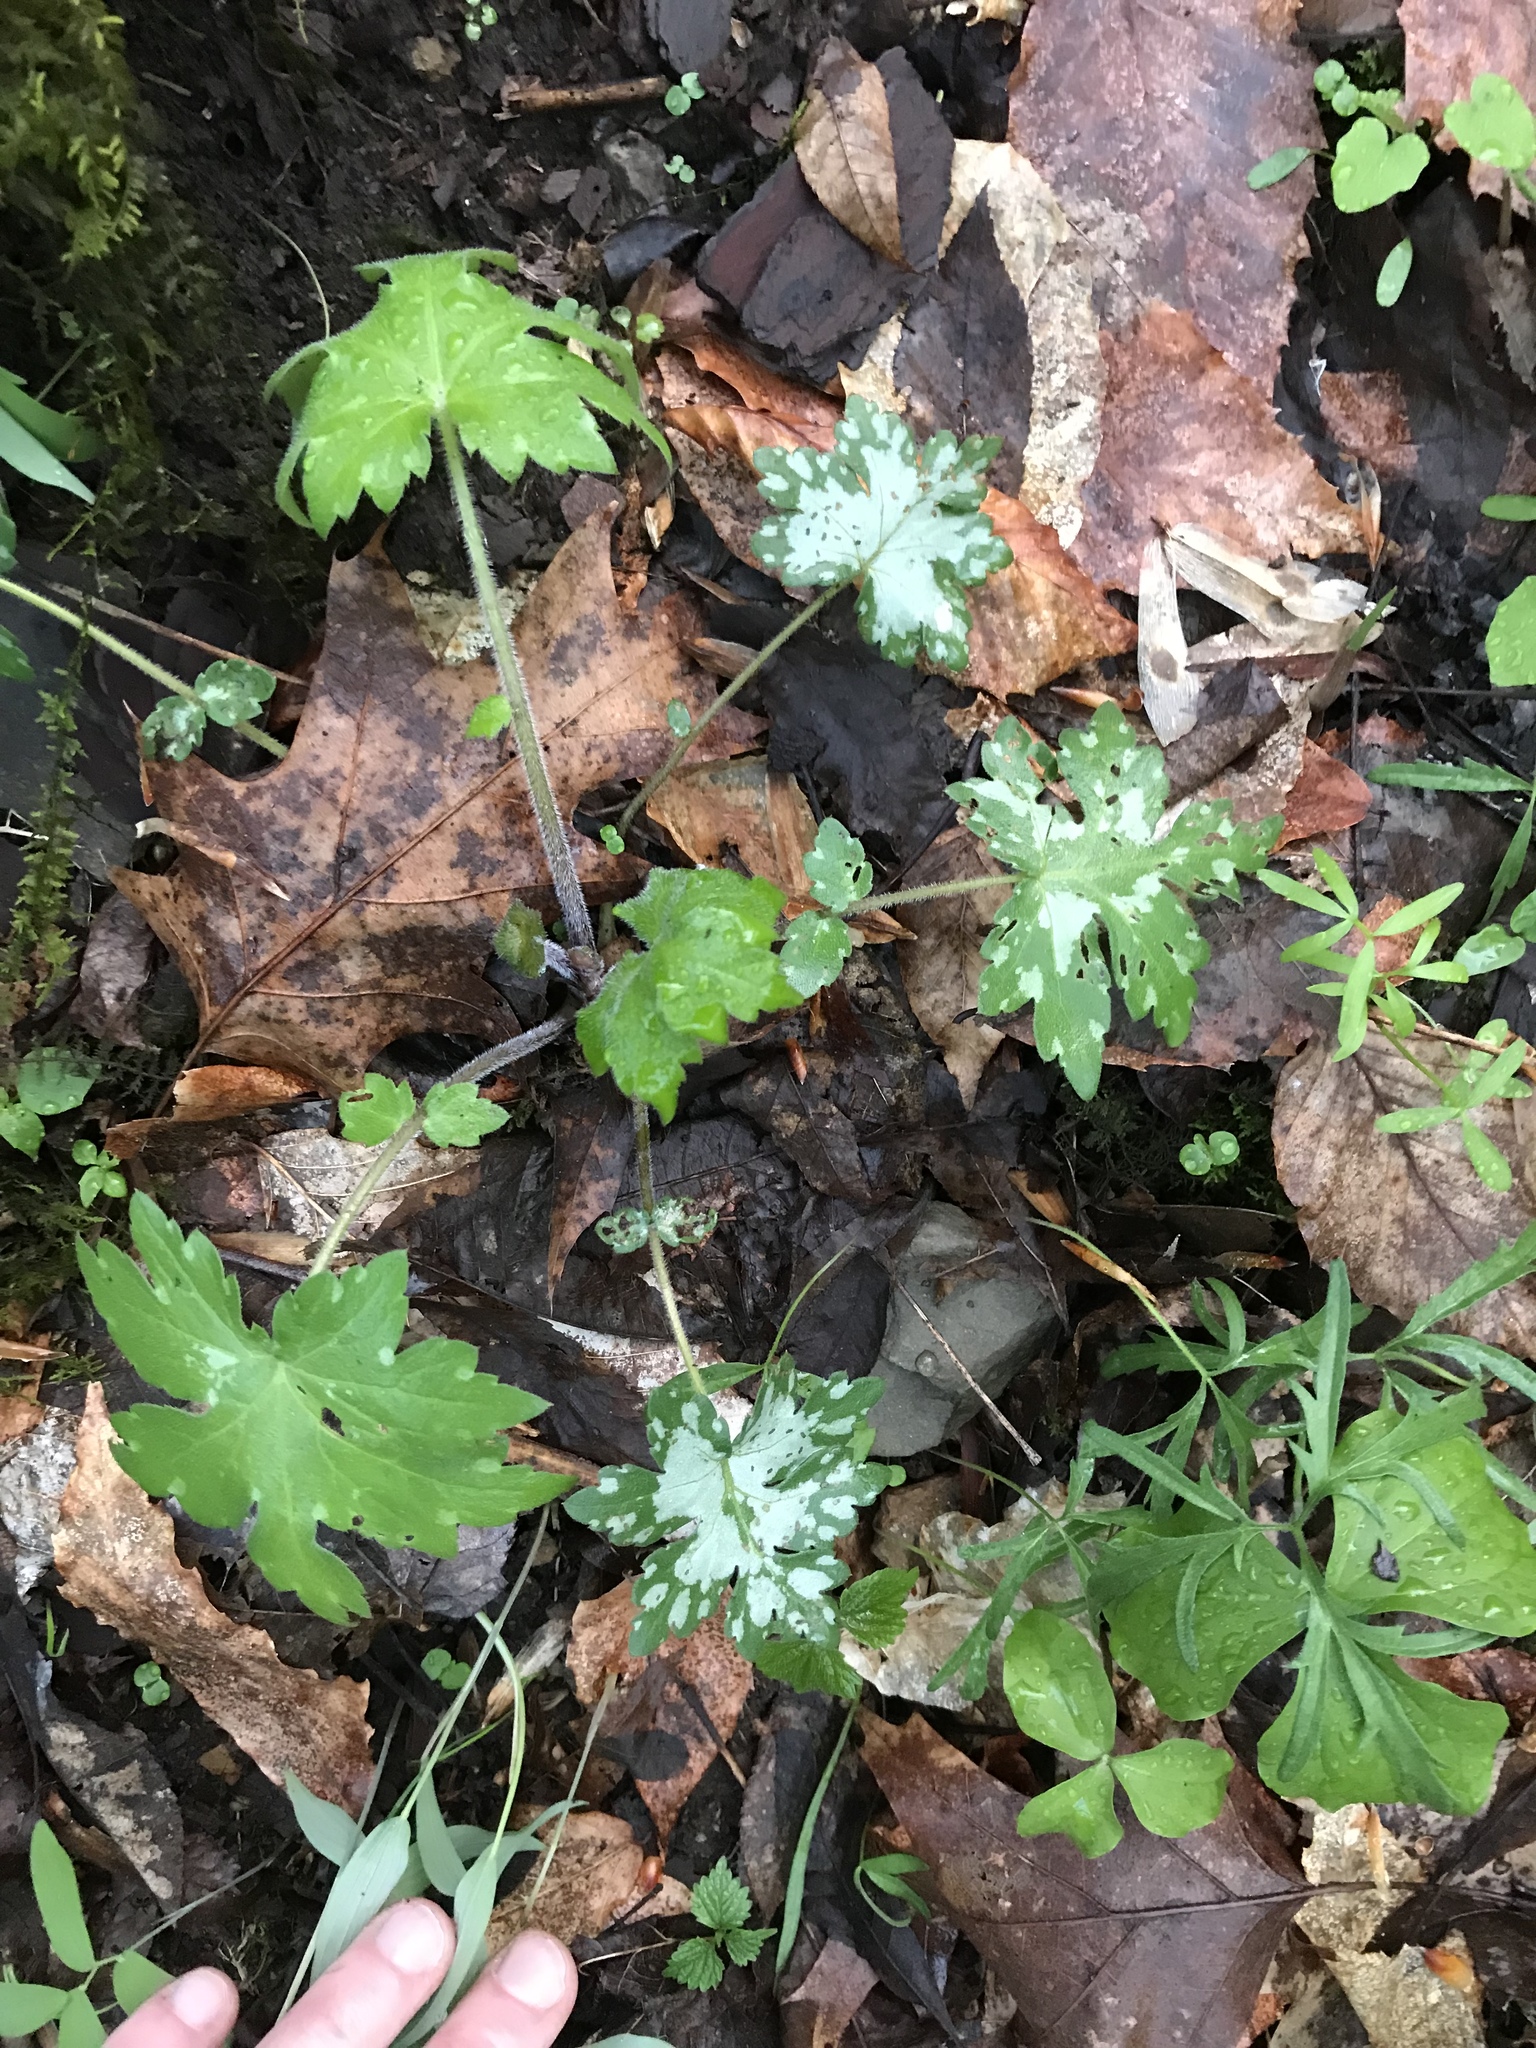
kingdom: Plantae
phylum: Tracheophyta
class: Magnoliopsida
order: Boraginales
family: Hydrophyllaceae
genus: Hydrophyllum
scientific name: Hydrophyllum canadense
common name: Canada waterleaf
